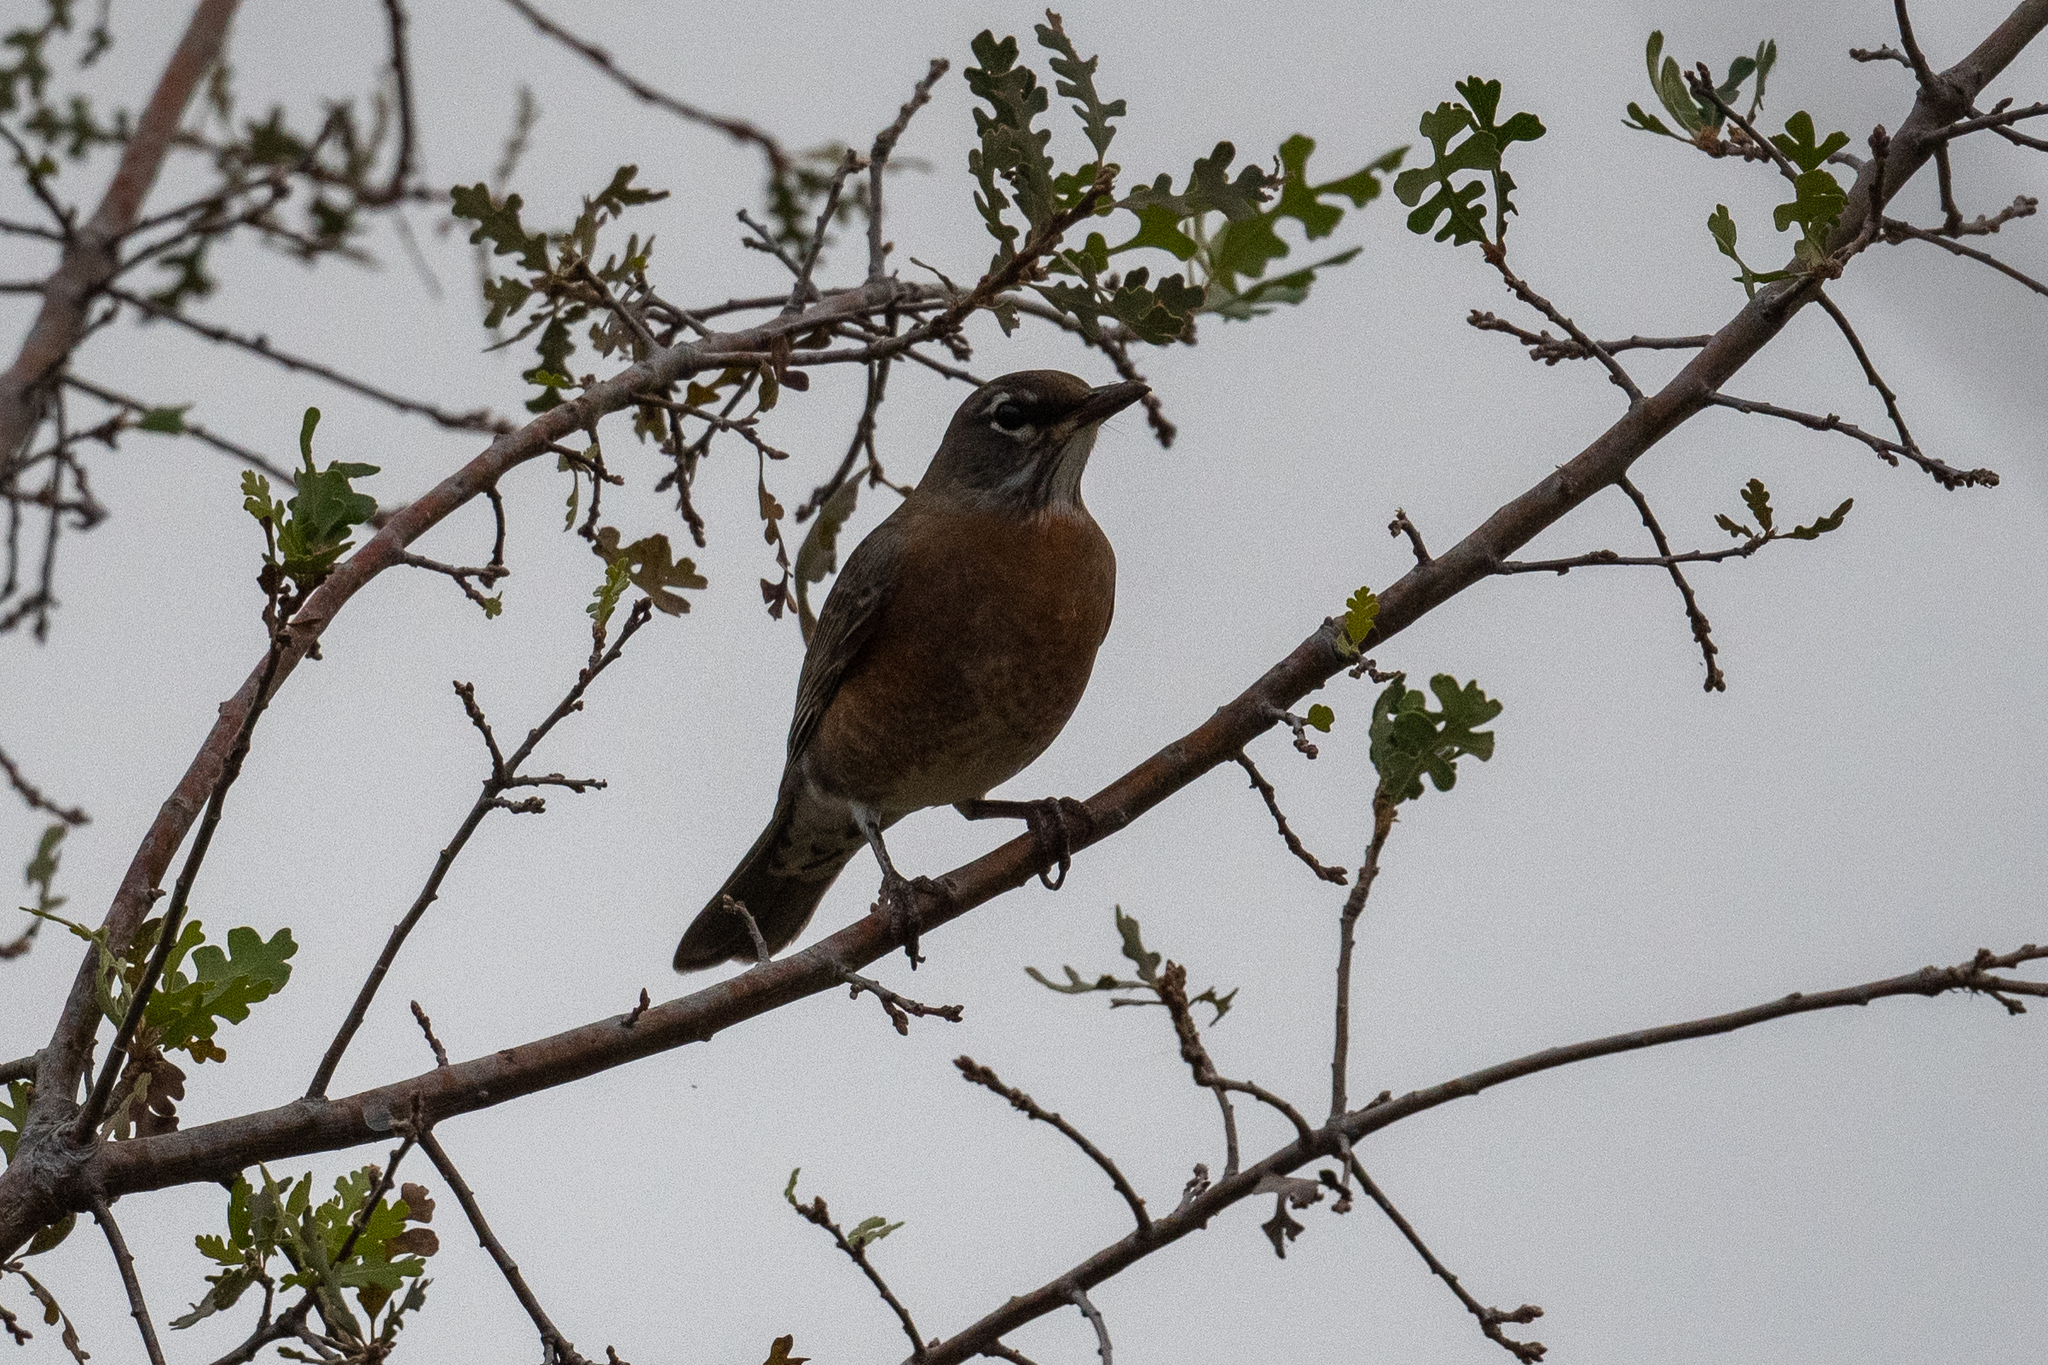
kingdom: Animalia
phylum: Chordata
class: Aves
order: Passeriformes
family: Turdidae
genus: Turdus
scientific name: Turdus migratorius
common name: American robin
